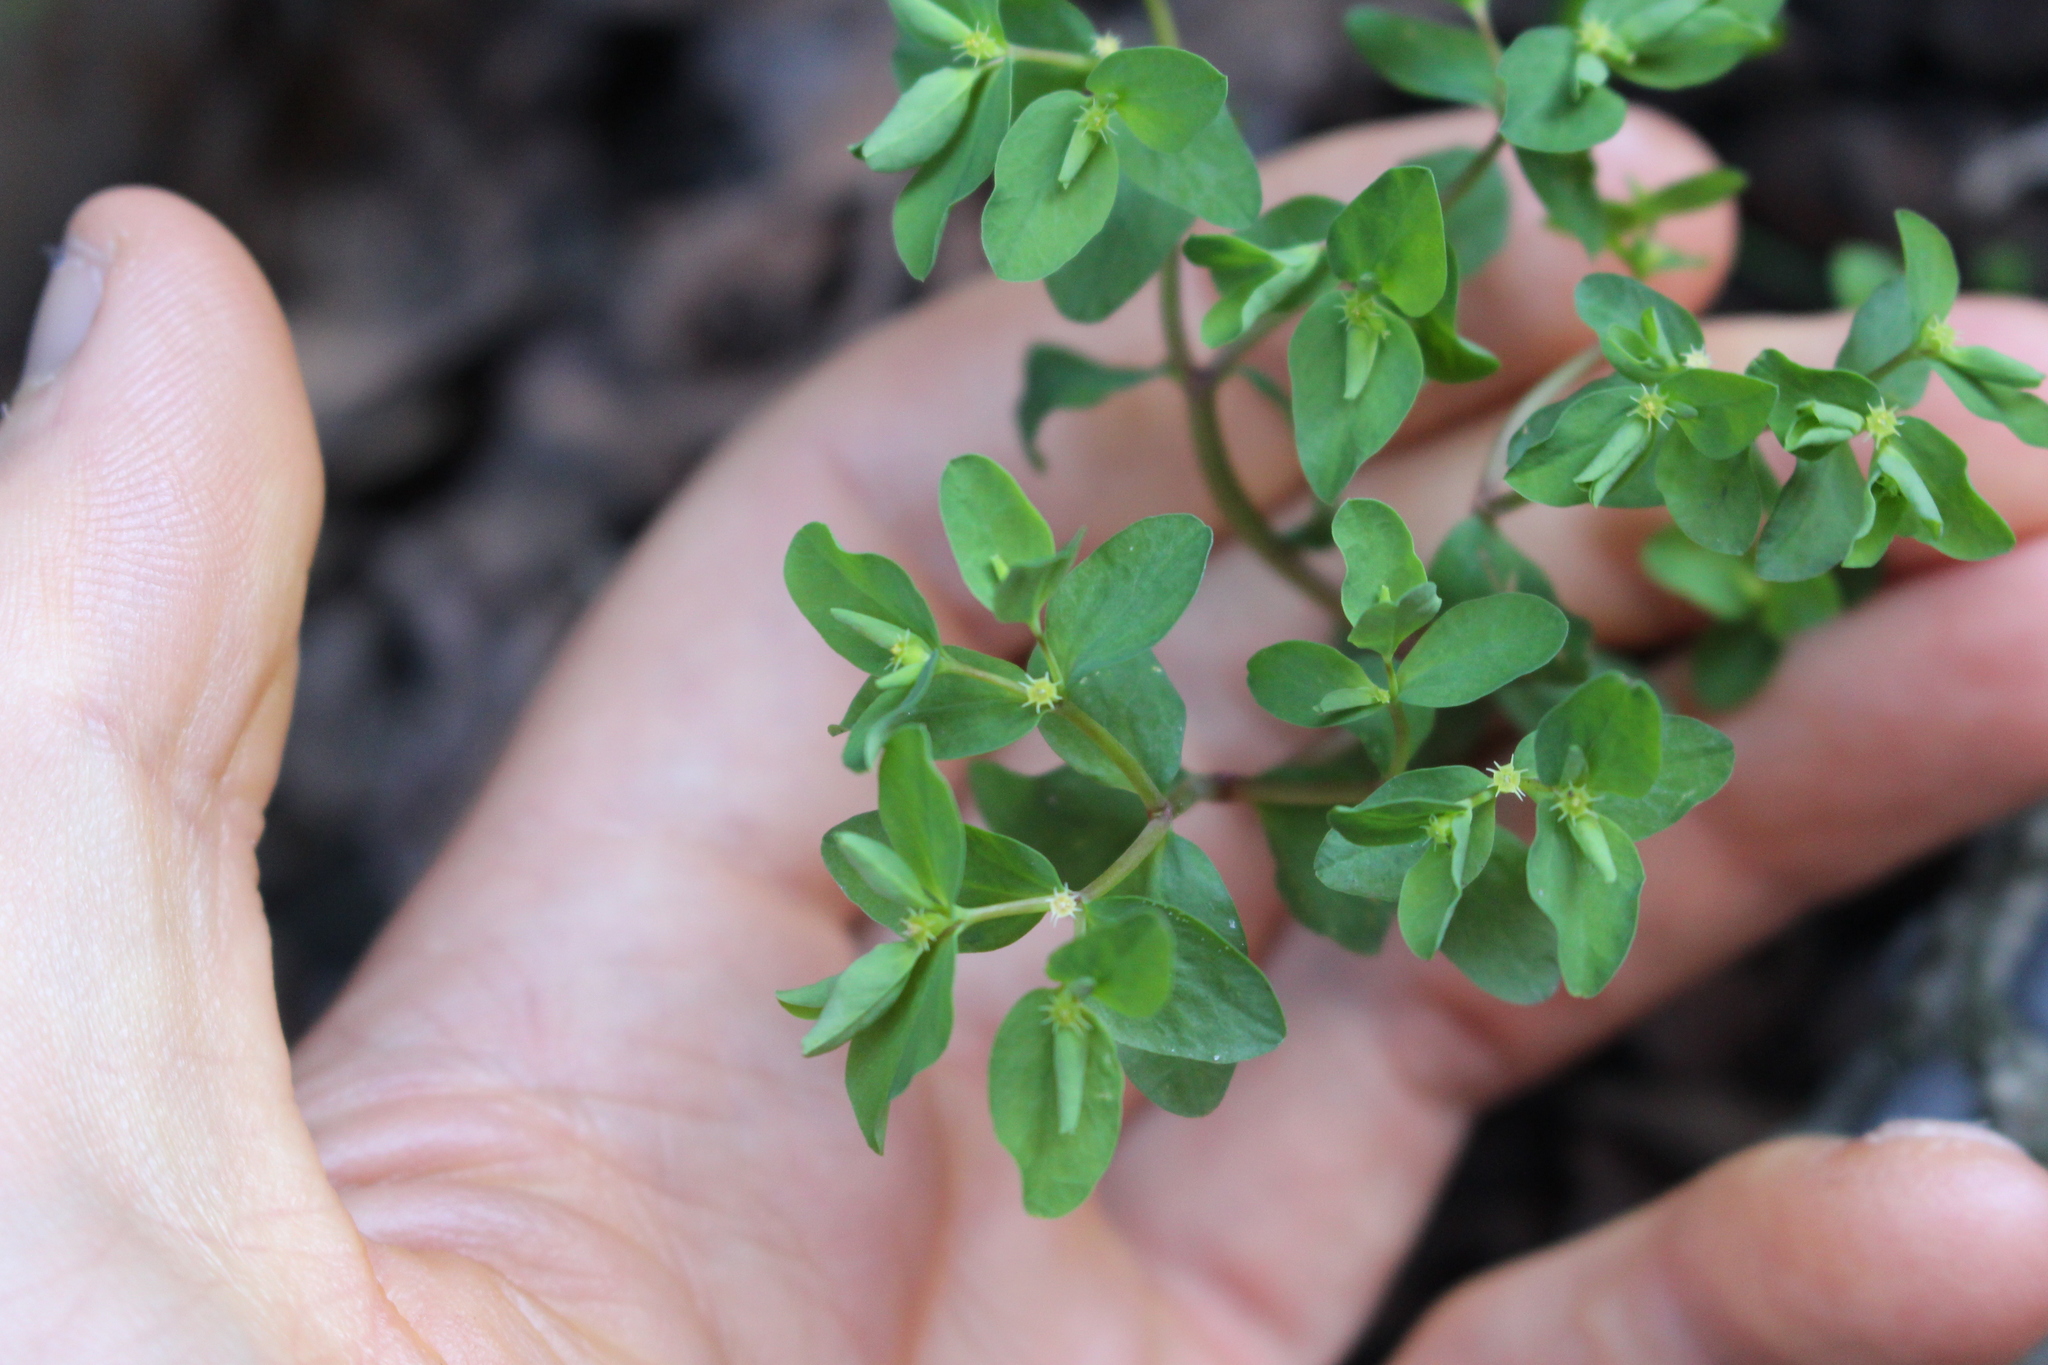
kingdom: Plantae
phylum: Tracheophyta
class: Magnoliopsida
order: Malpighiales
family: Euphorbiaceae
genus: Euphorbia
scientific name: Euphorbia peplus
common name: Petty spurge
